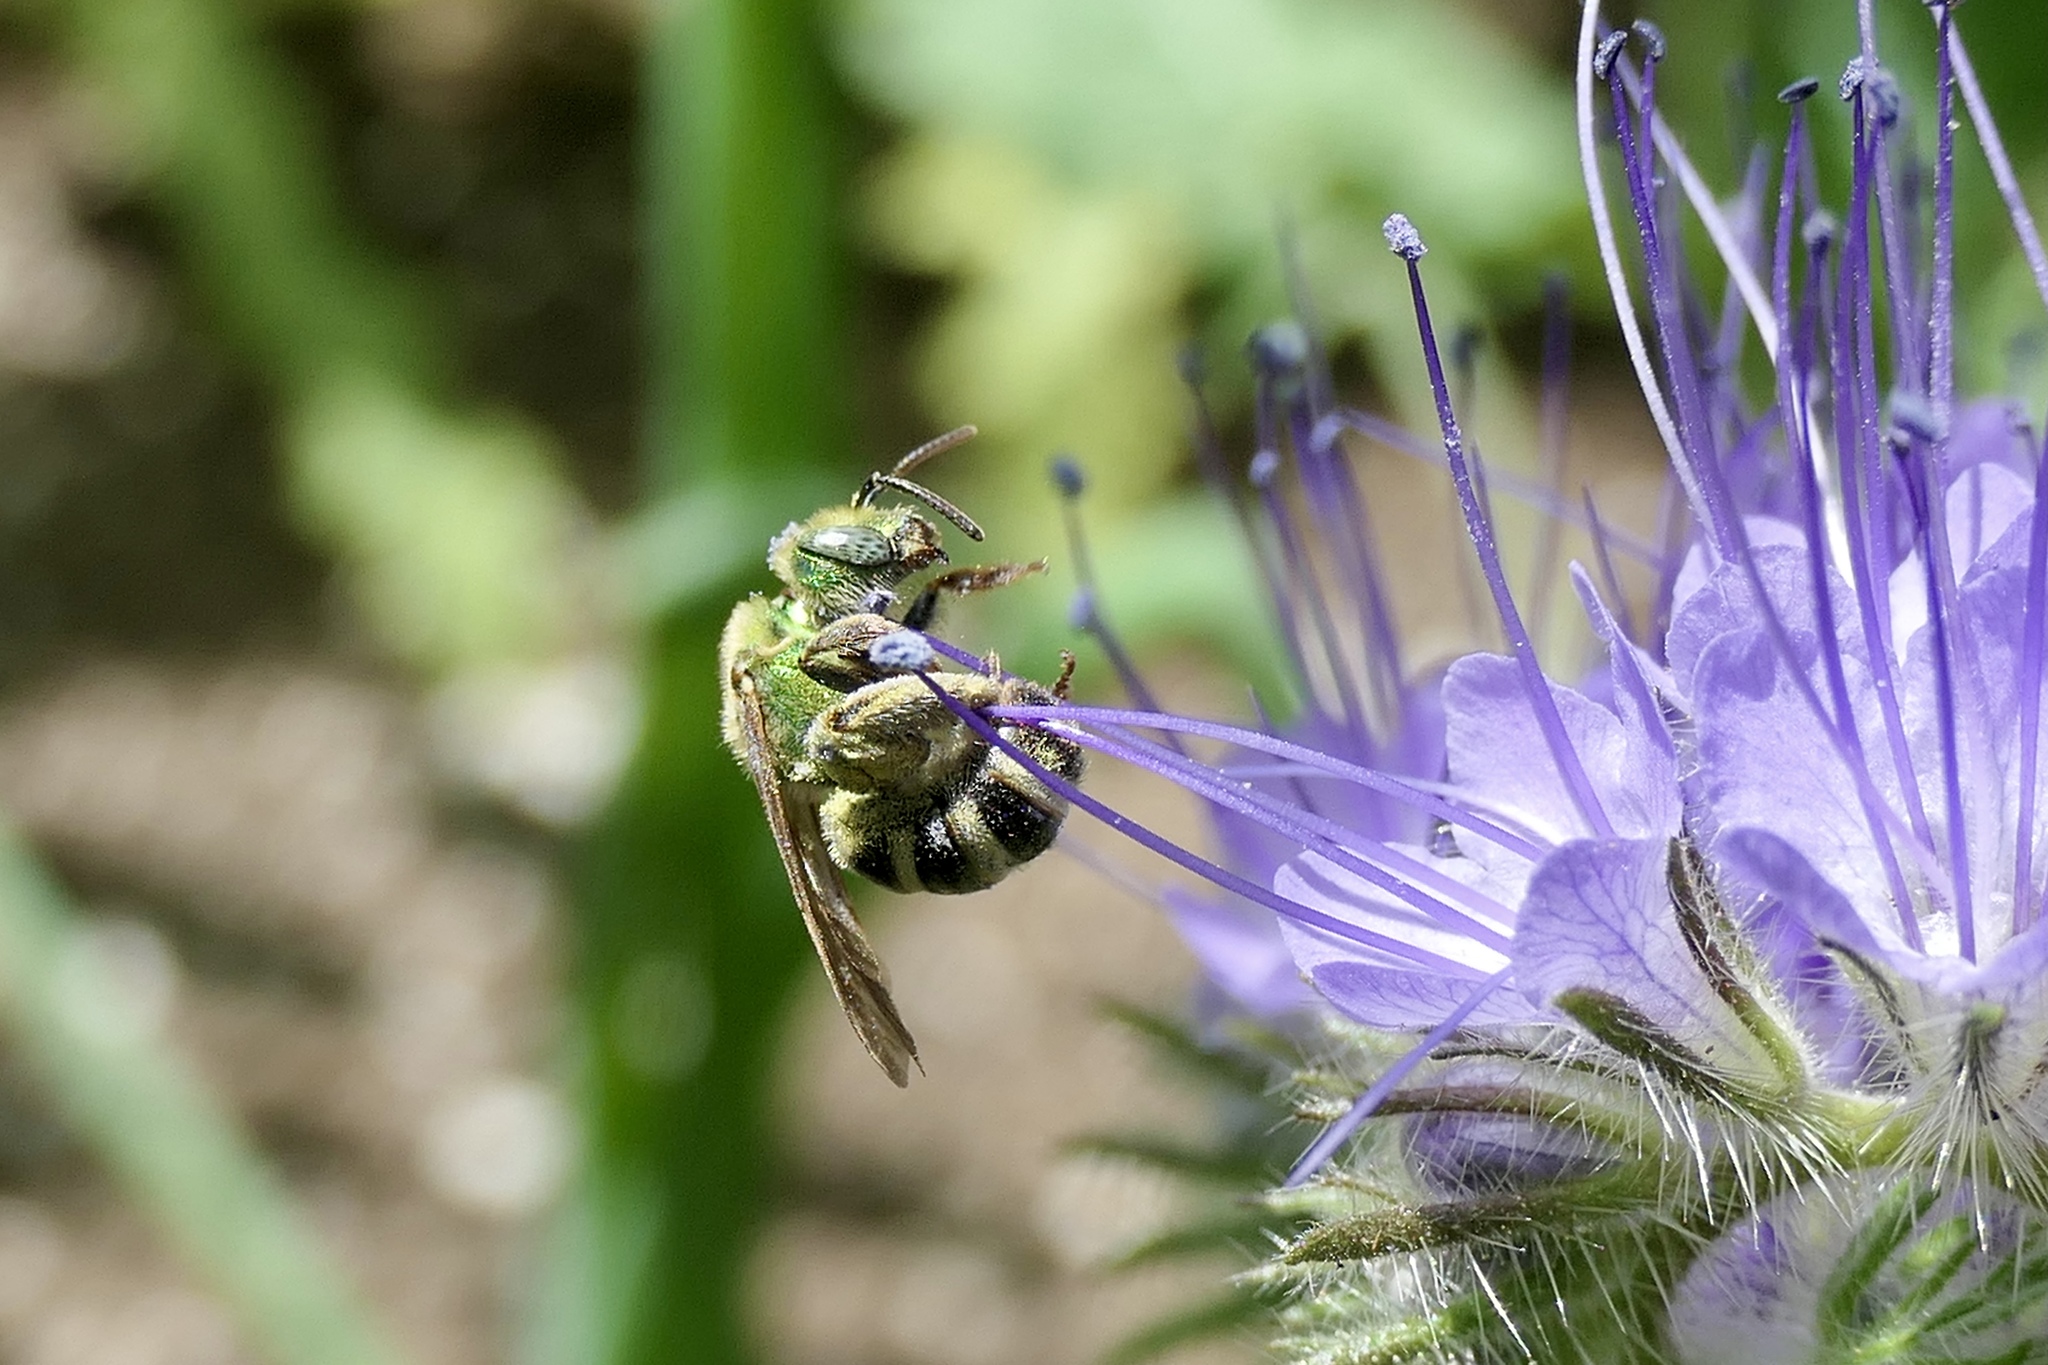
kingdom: Animalia
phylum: Arthropoda
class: Insecta
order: Hymenoptera
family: Halictidae
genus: Agapostemon
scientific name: Agapostemon virescens
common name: Bicolored striped sweat bee
